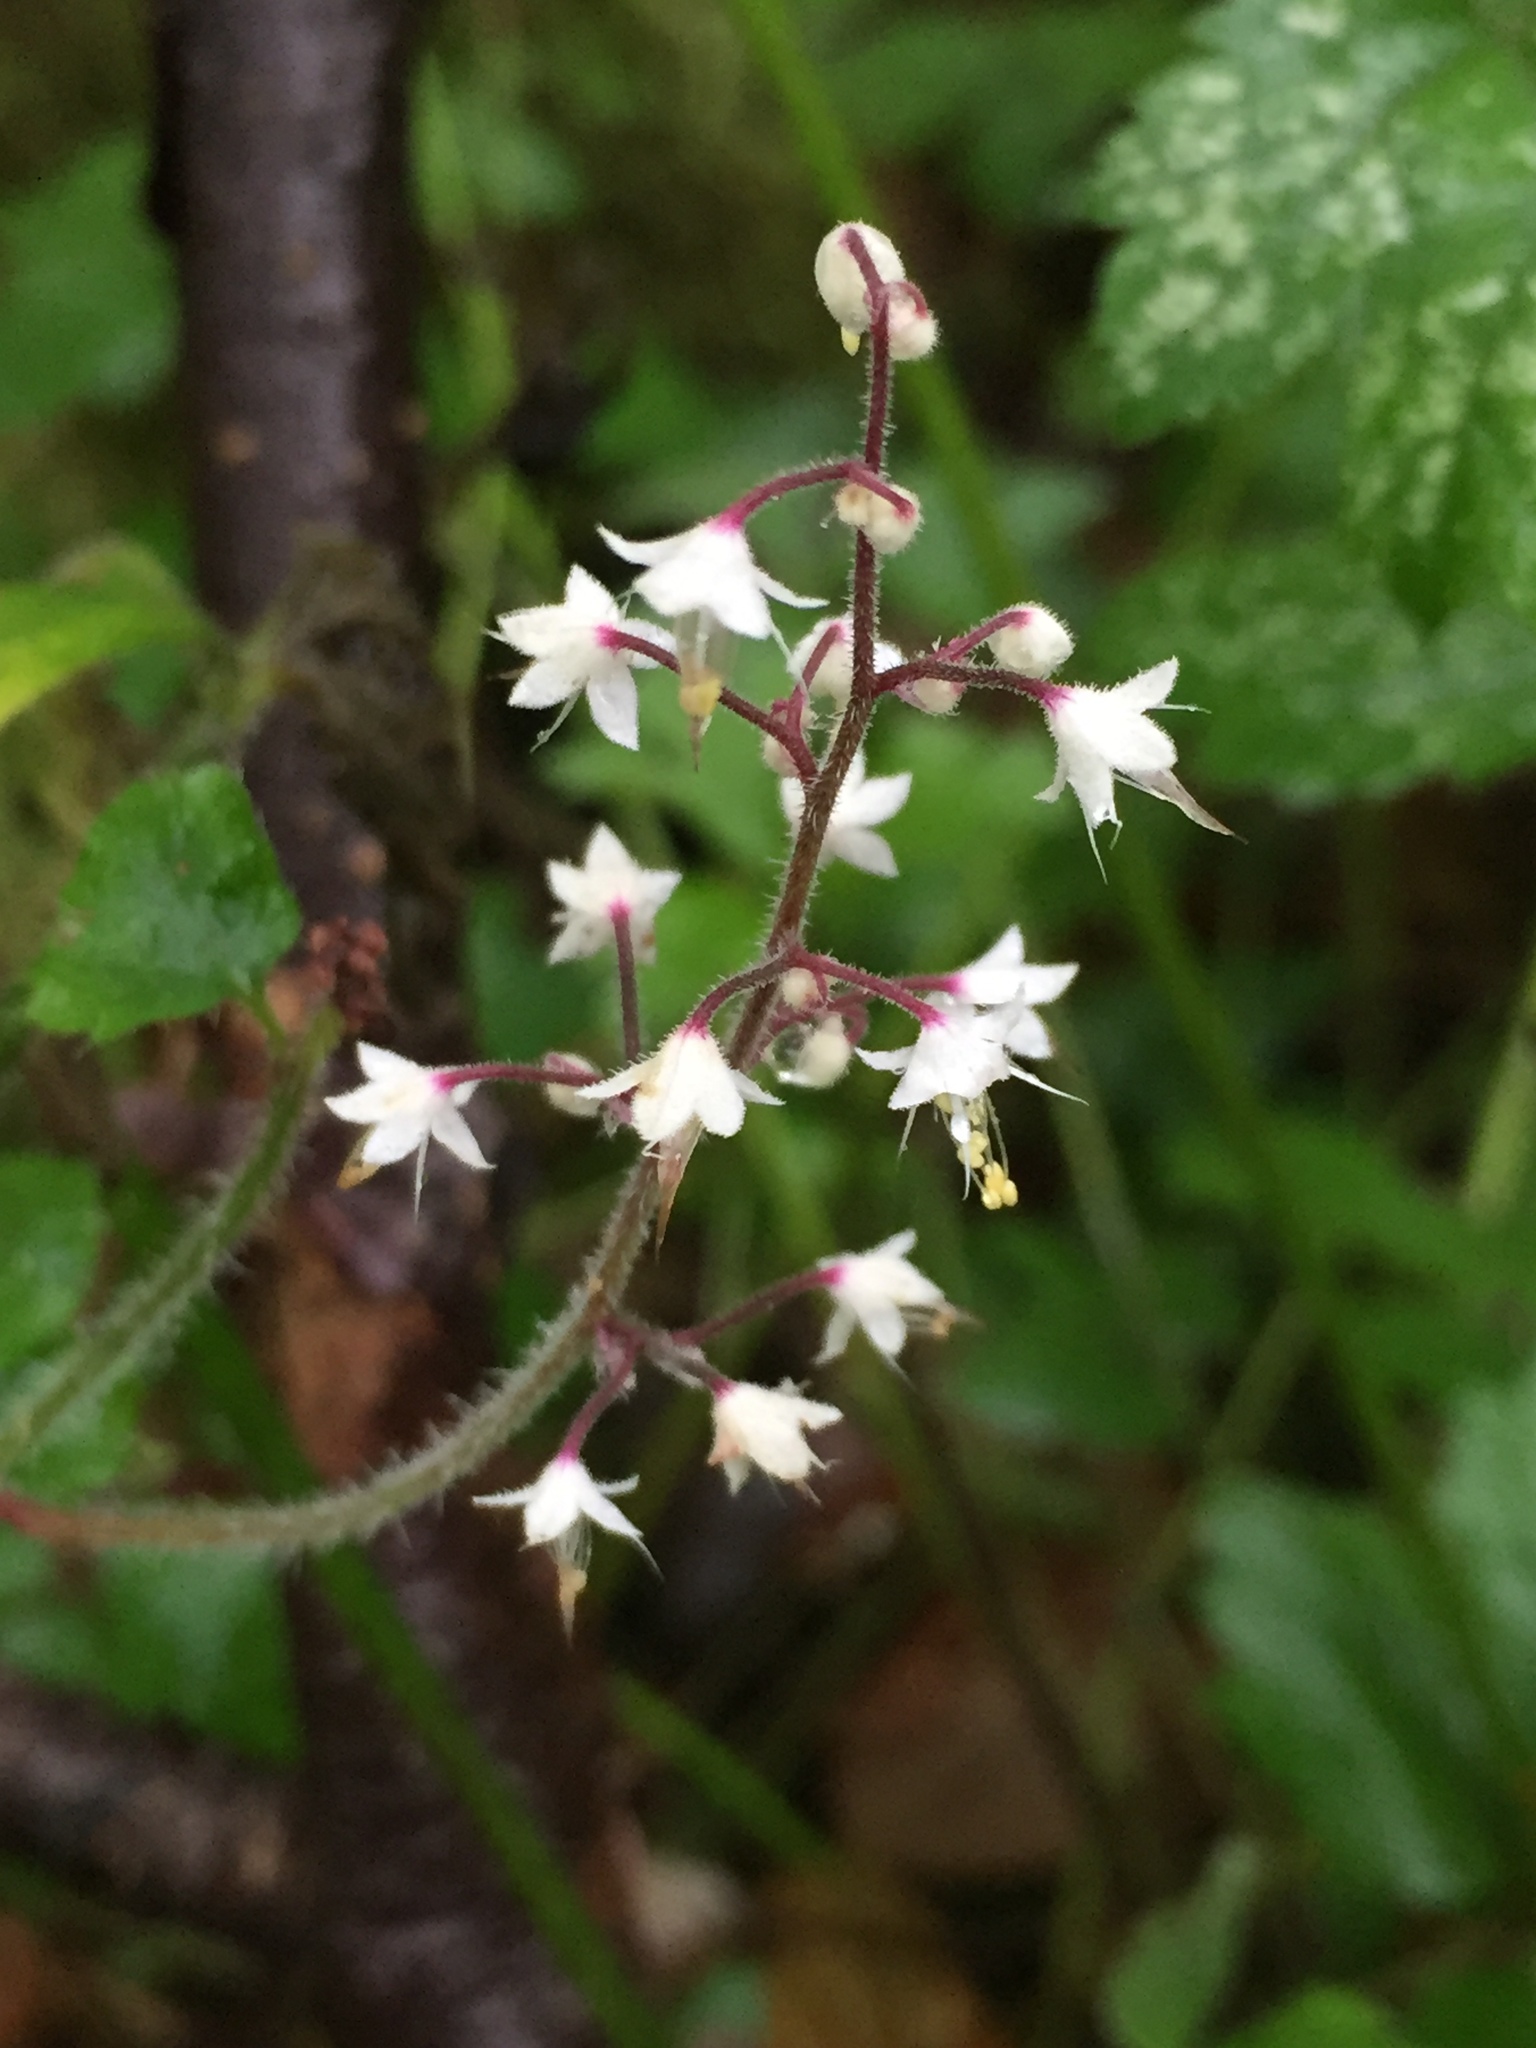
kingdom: Plantae
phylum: Tracheophyta
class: Magnoliopsida
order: Saxifragales
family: Saxifragaceae
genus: Tiarella
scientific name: Tiarella trifoliata
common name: Sugar-scoop
